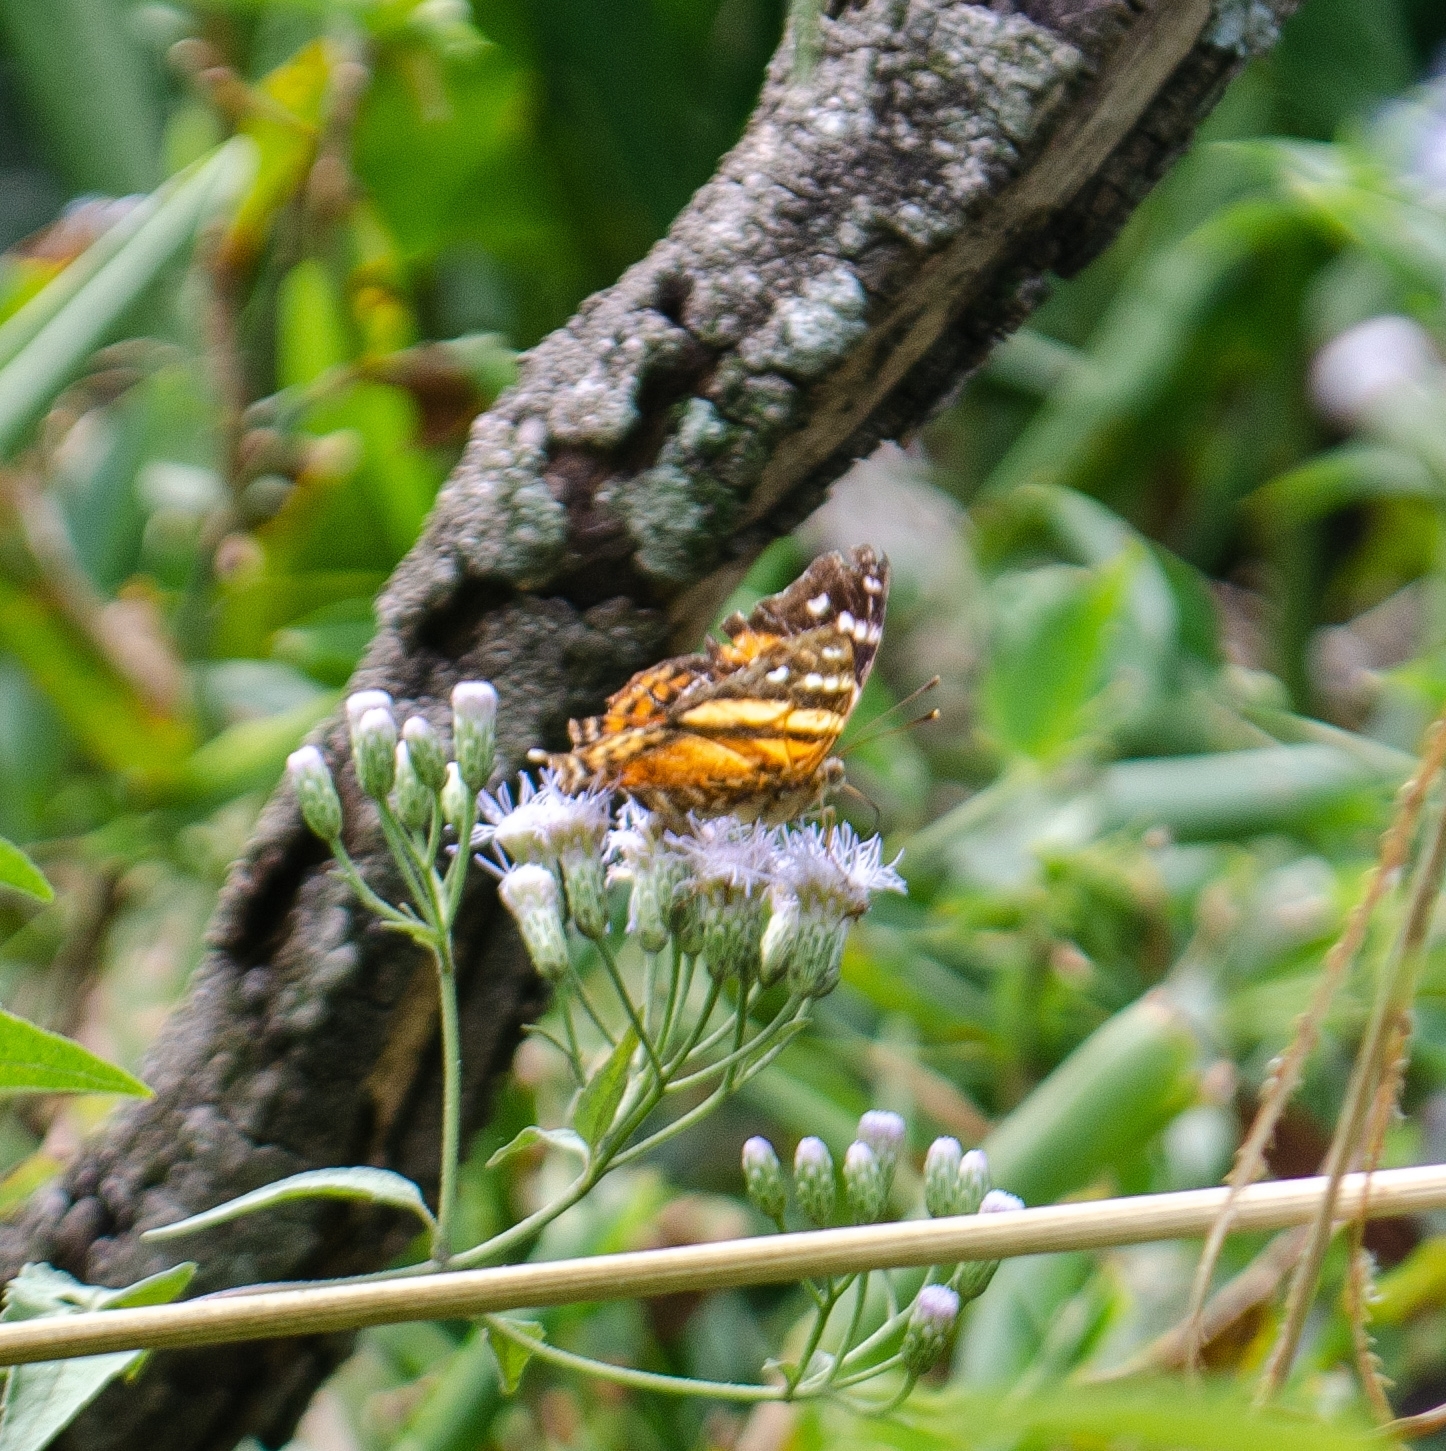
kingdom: Animalia
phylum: Arthropoda
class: Insecta
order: Lepidoptera
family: Nymphalidae
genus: Hypanartia
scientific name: Hypanartia bella
